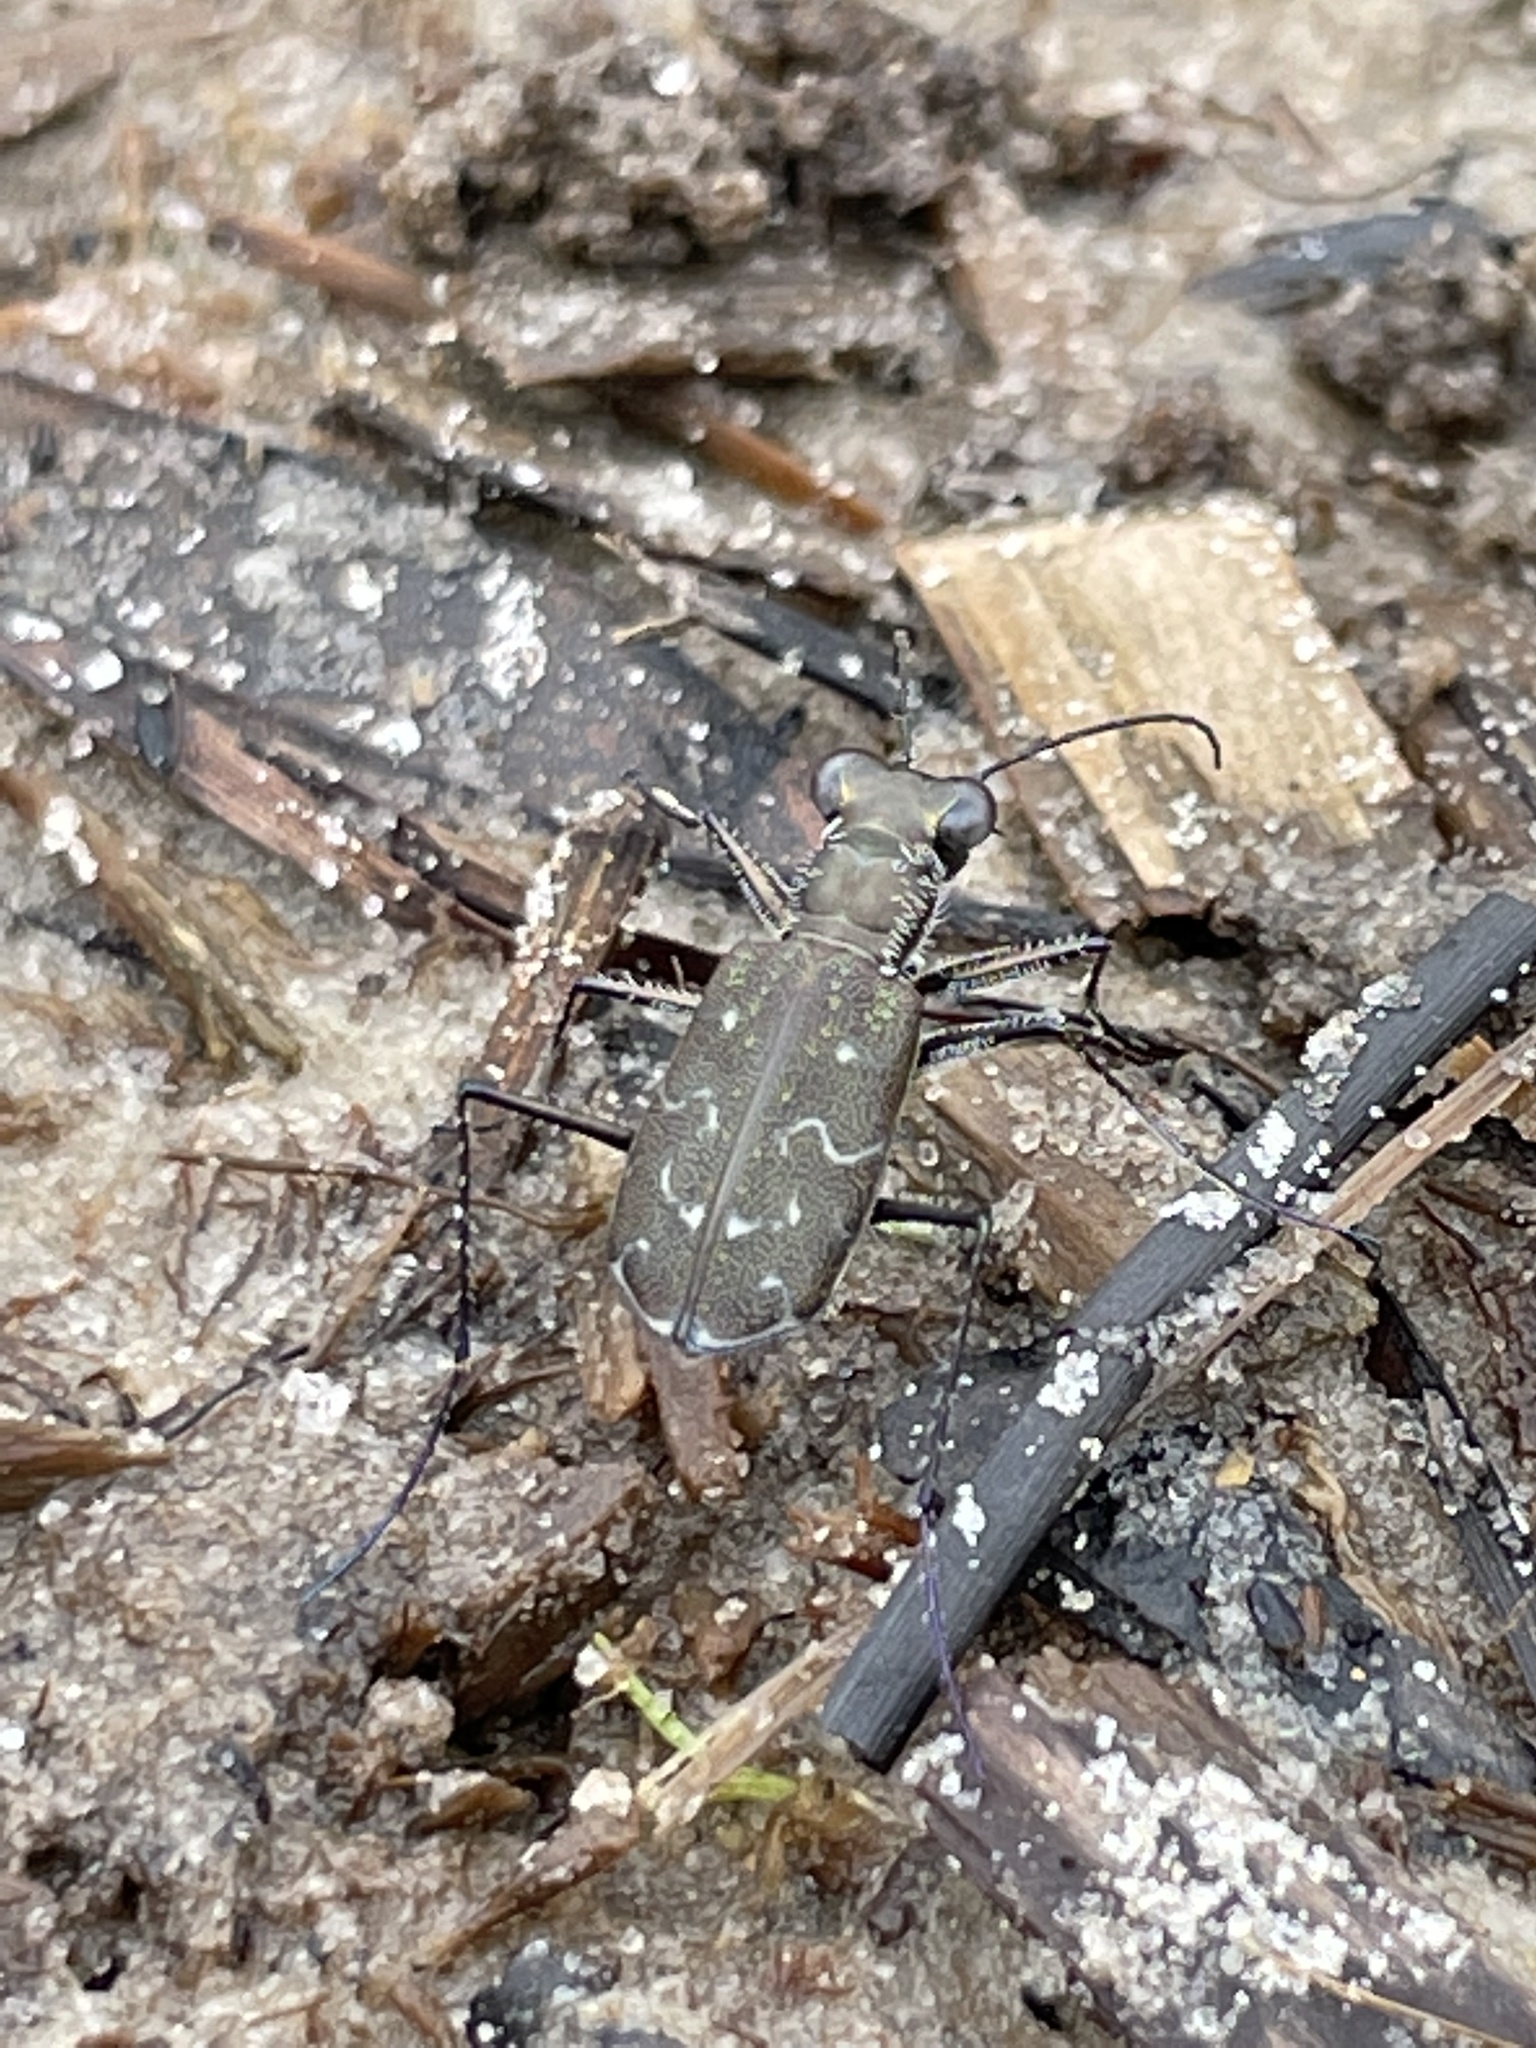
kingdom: Animalia
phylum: Arthropoda
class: Insecta
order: Coleoptera
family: Carabidae
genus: Cicindela
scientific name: Cicindela trifasciata
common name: Mudflat tiger beetle
